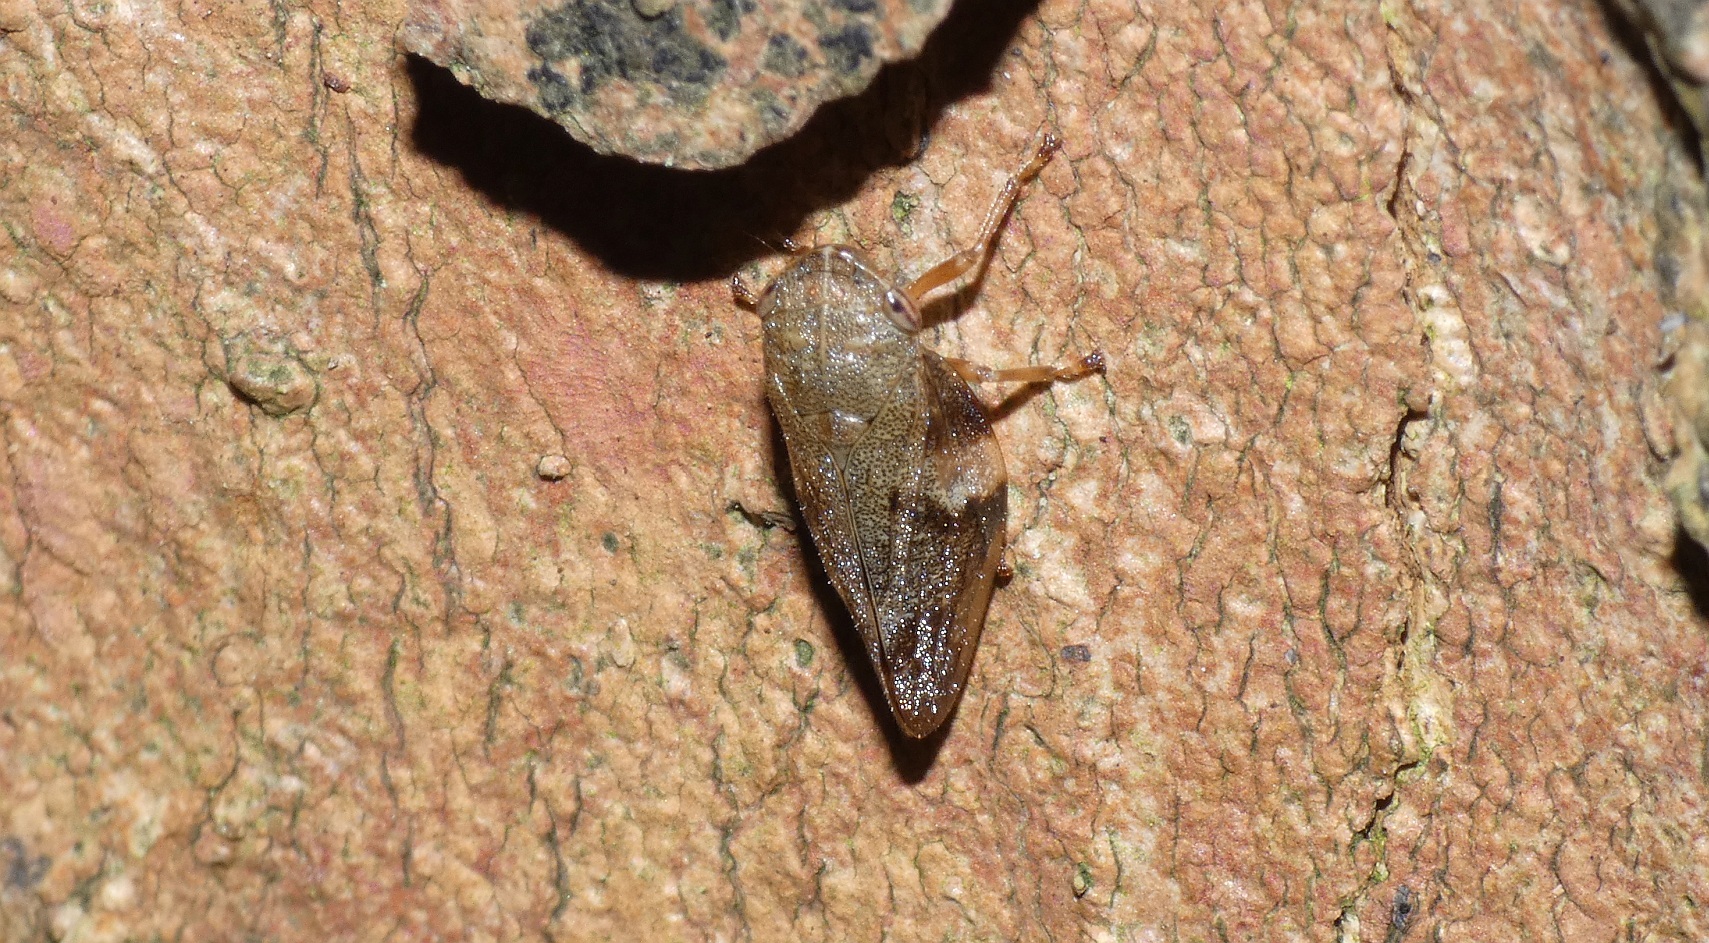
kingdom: Animalia
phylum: Arthropoda
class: Insecta
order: Hemiptera
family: Aphrophoridae
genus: Aphrophora
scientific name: Aphrophora alni
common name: European alder spittlebug
